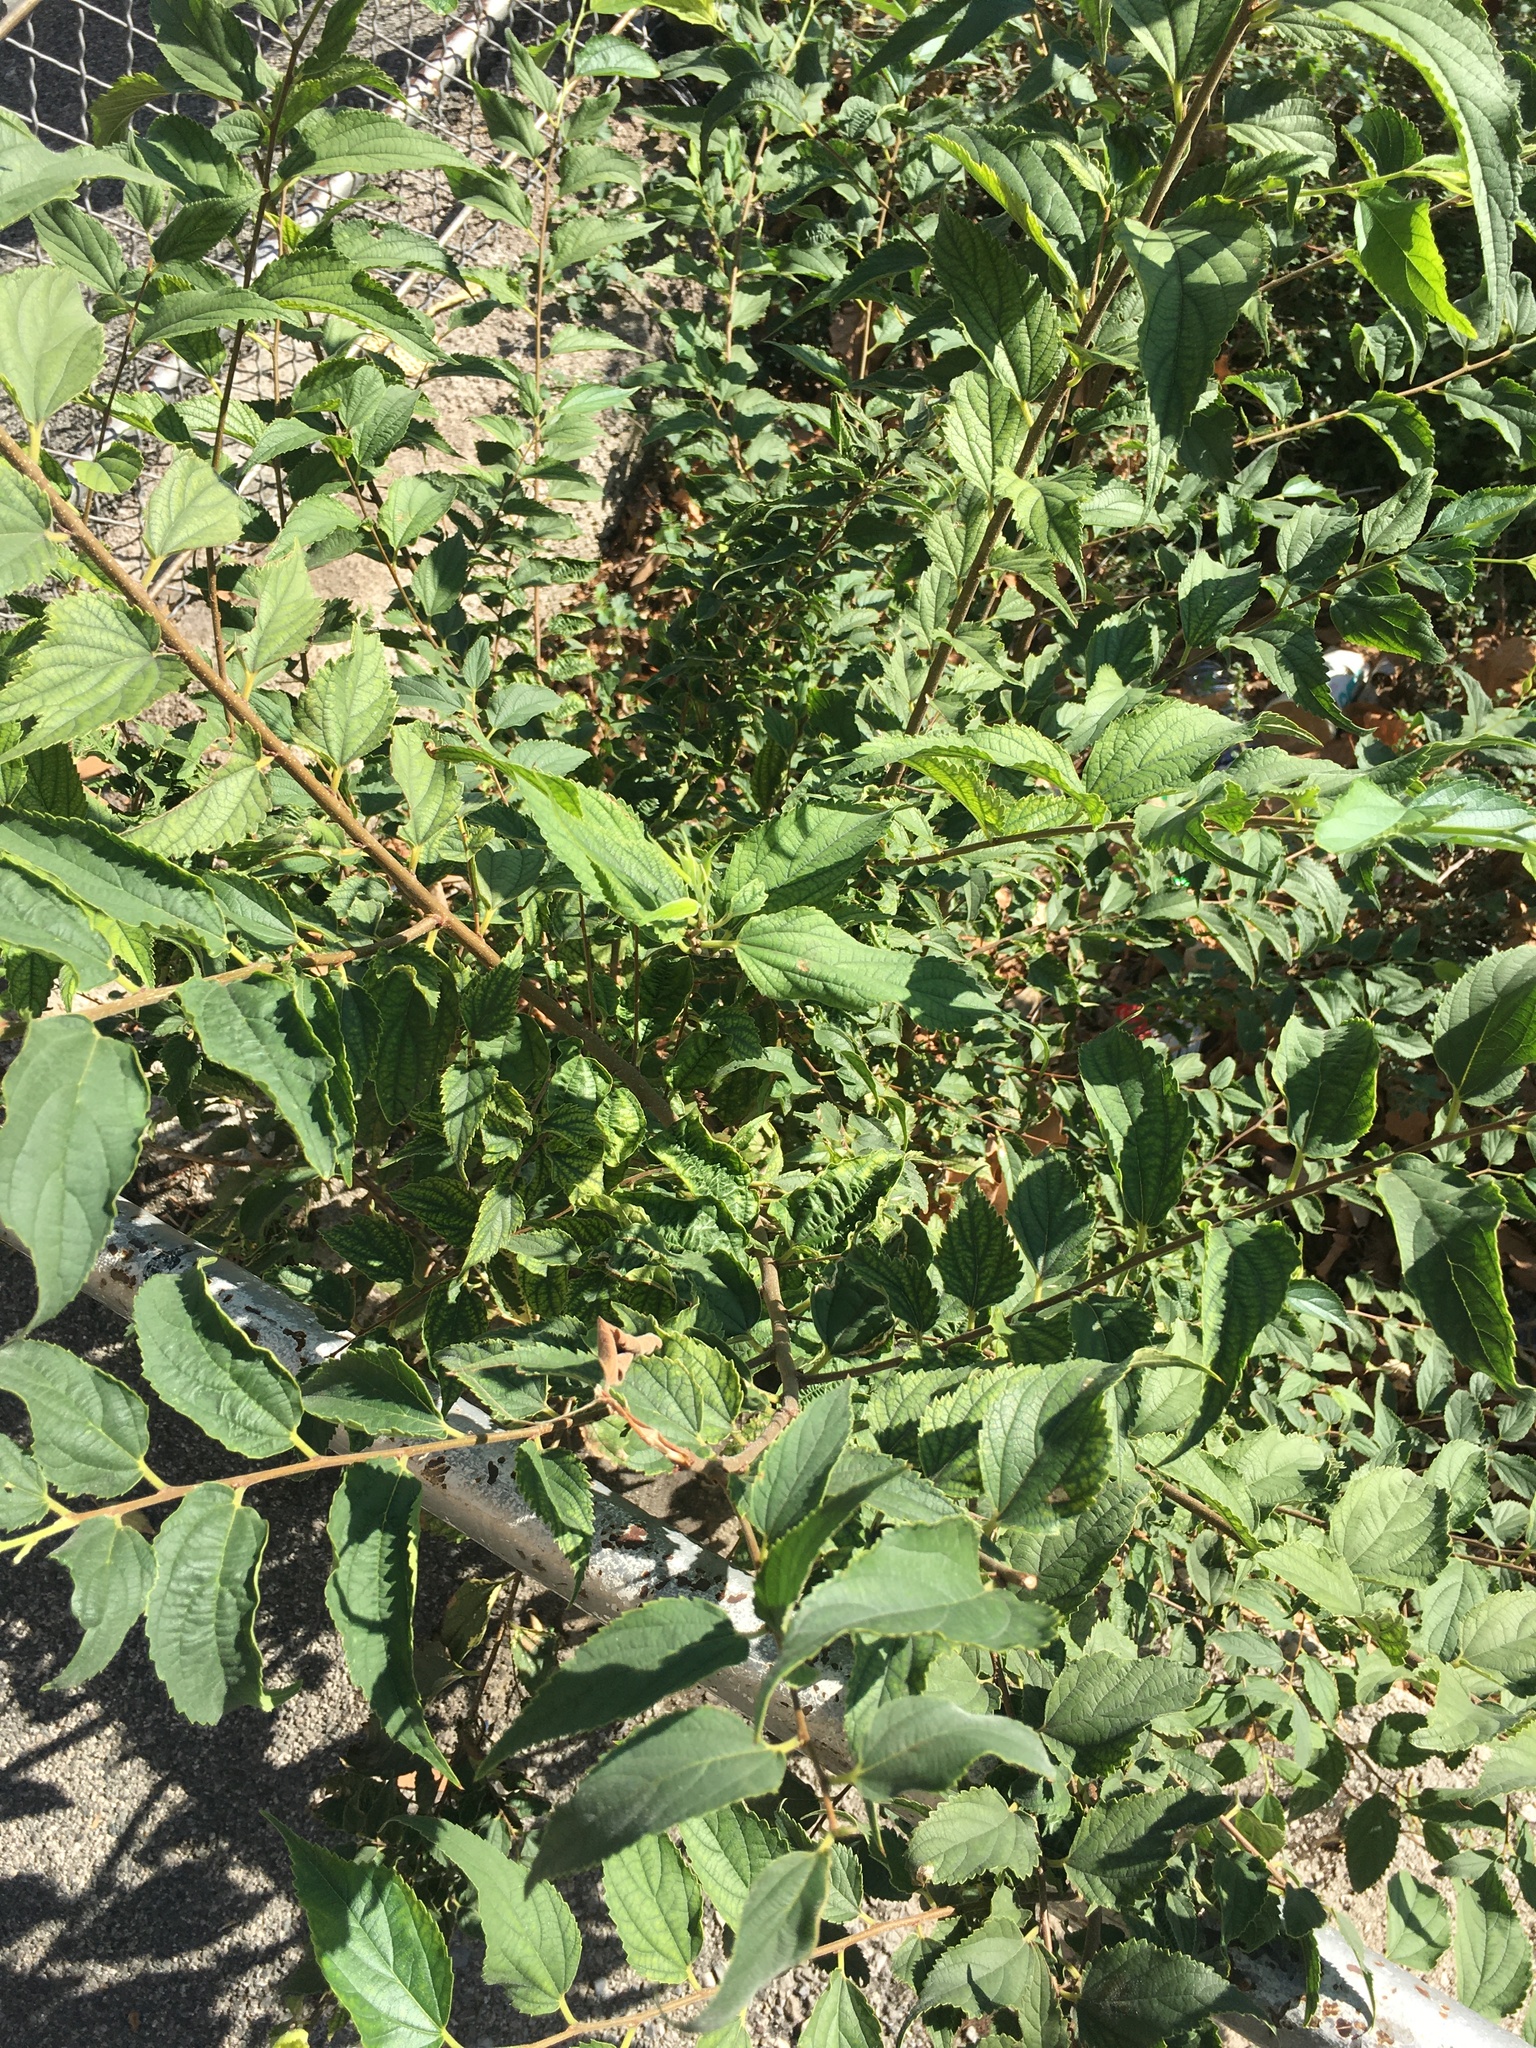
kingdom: Plantae
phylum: Tracheophyta
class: Magnoliopsida
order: Rosales
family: Cannabaceae
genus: Celtis
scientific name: Celtis australis
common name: European hackberry
